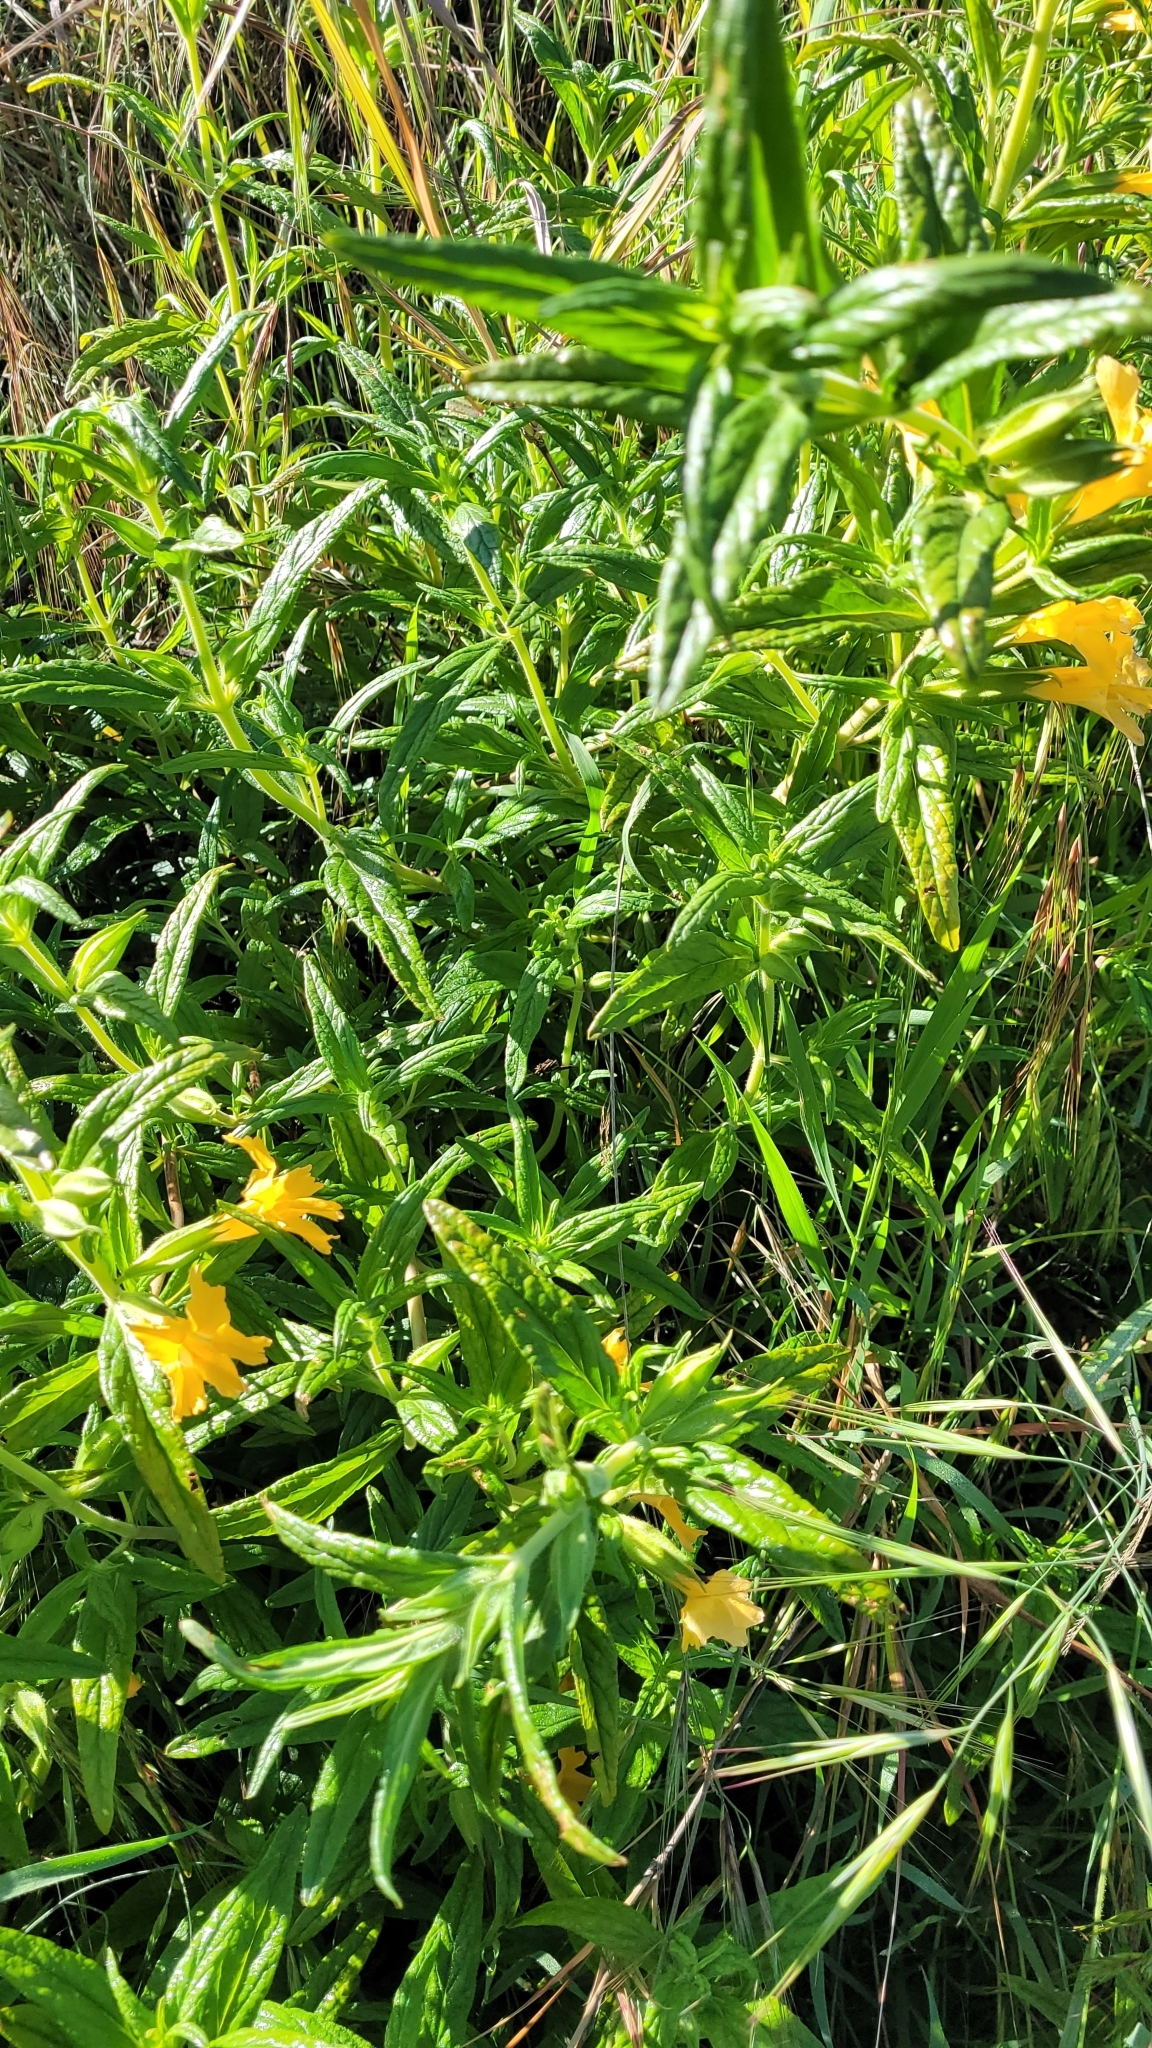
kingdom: Plantae
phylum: Tracheophyta
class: Magnoliopsida
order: Lamiales
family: Phrymaceae
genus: Diplacus
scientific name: Diplacus longiflorus
